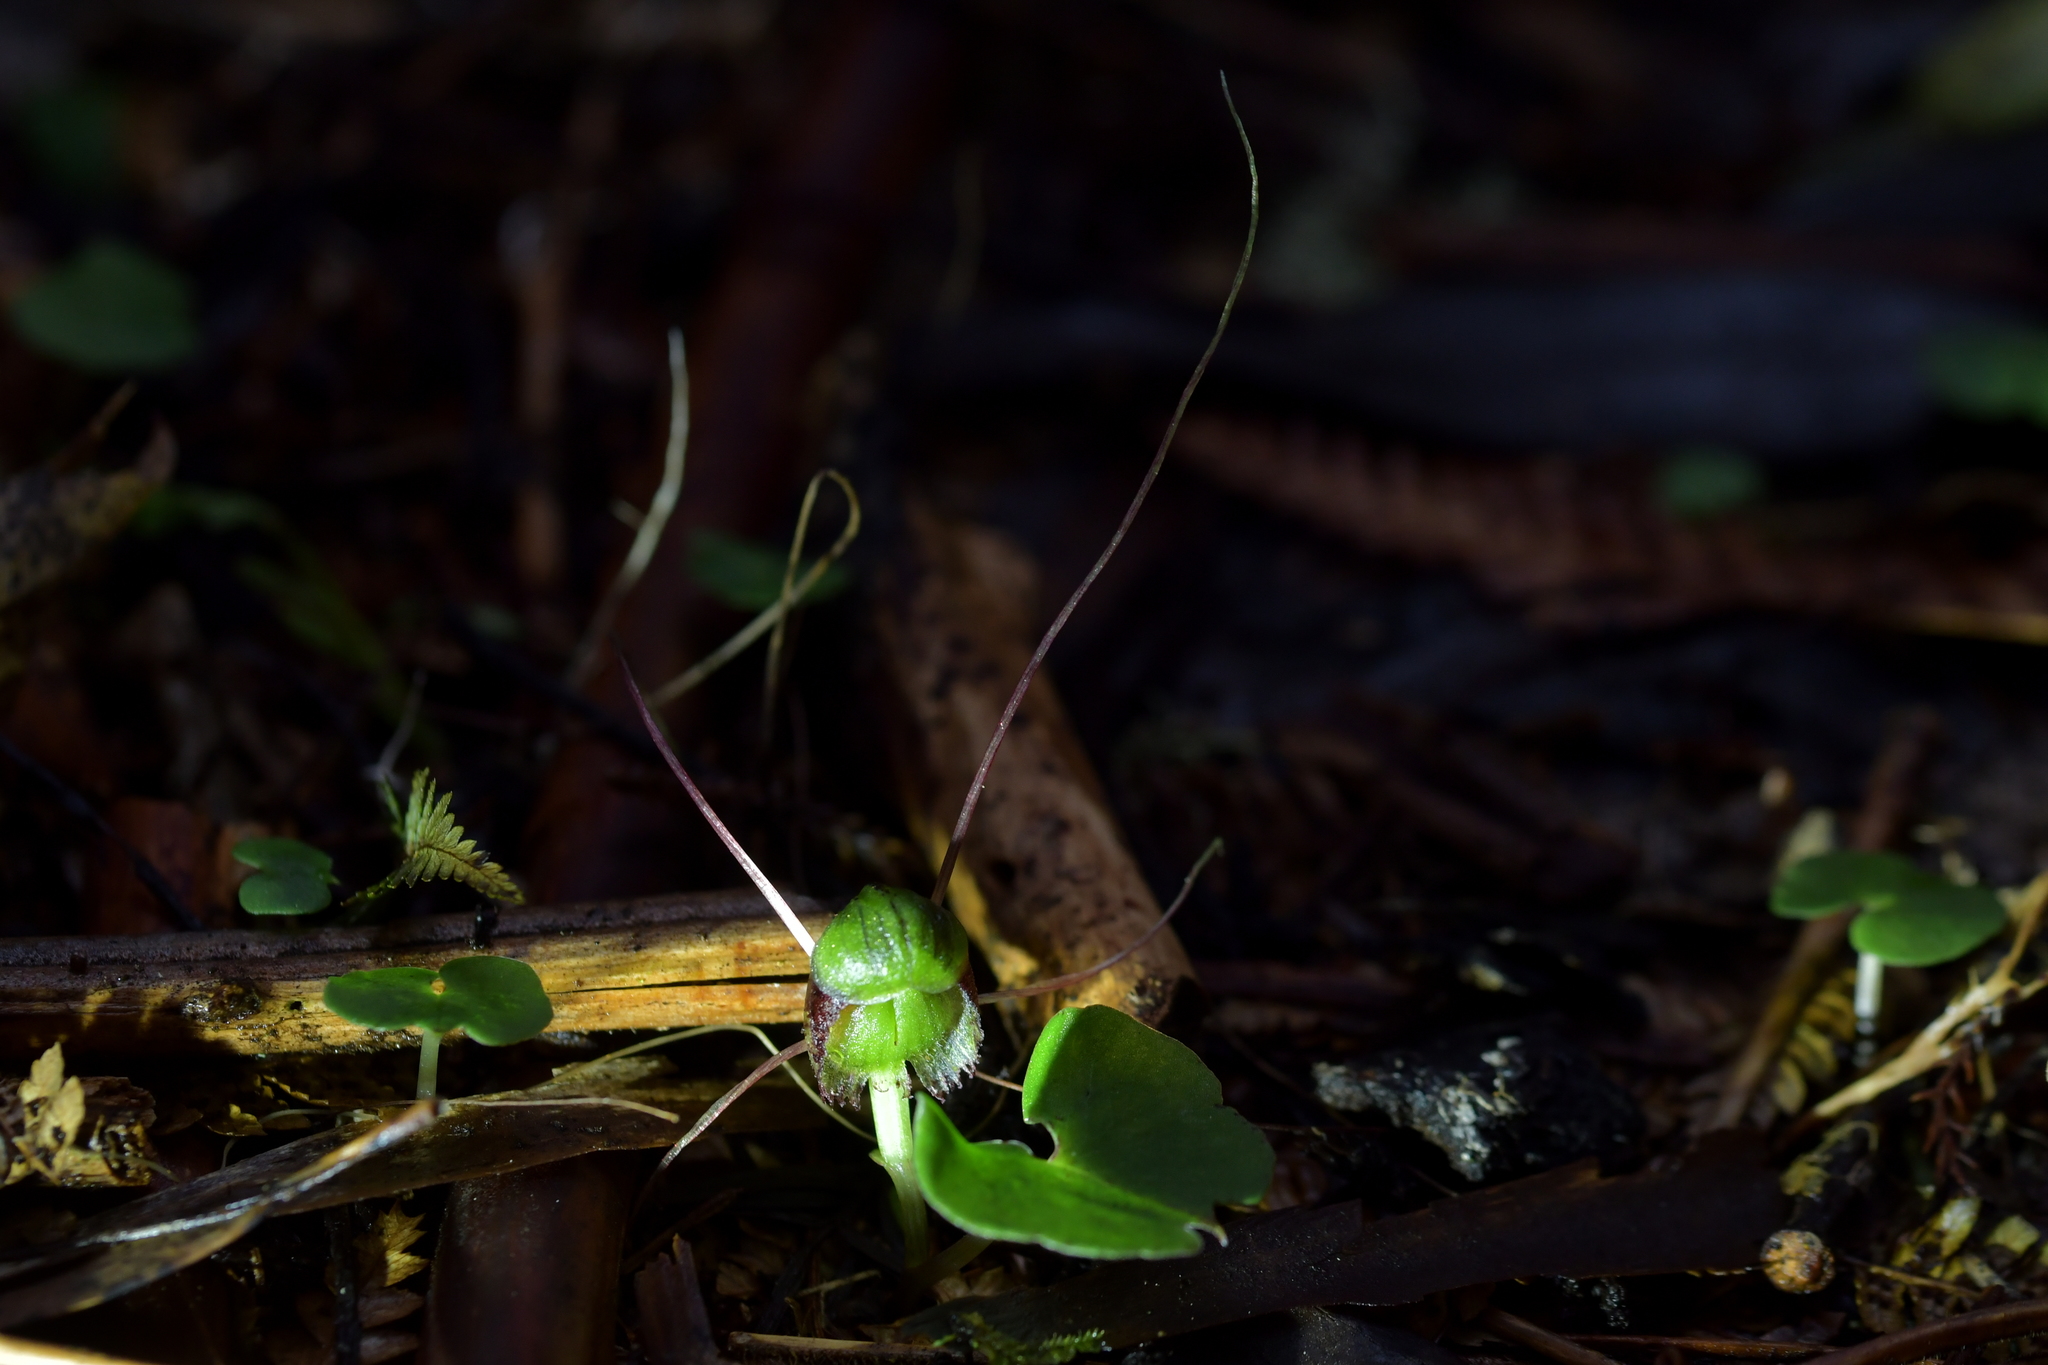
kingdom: Plantae
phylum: Tracheophyta
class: Liliopsida
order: Asparagales
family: Orchidaceae
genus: Corybas
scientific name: Corybas vitreus
